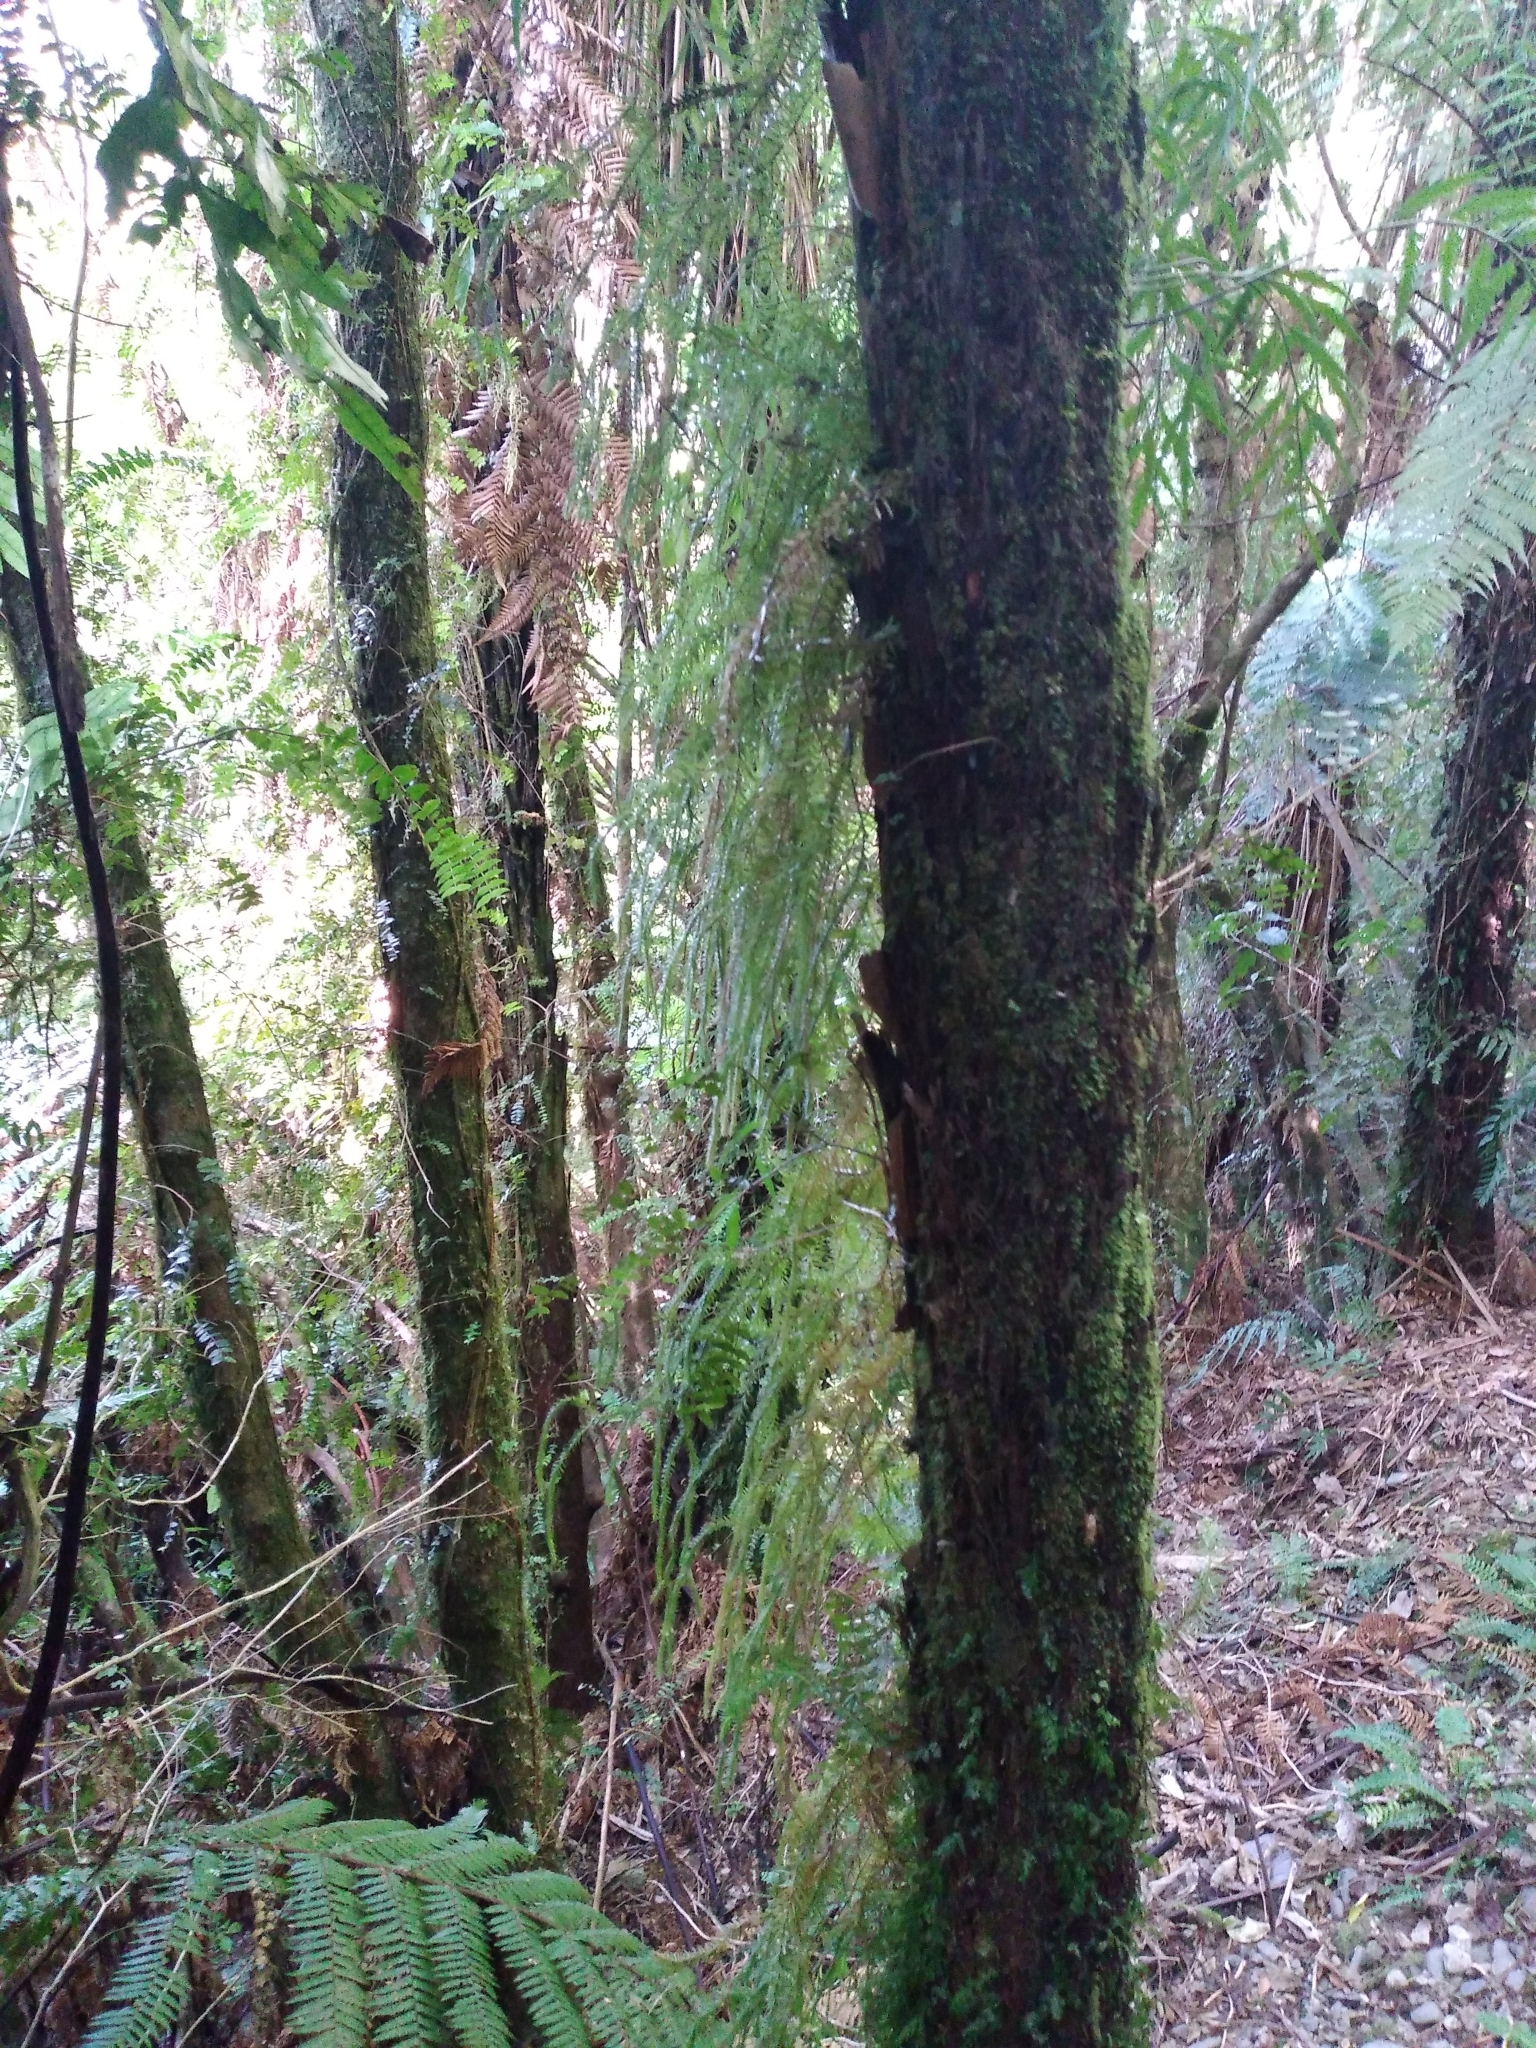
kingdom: Plantae
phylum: Tracheophyta
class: Lycopodiopsida
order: Lycopodiales
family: Lycopodiaceae
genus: Phlegmariurus
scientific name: Phlegmariurus varius
